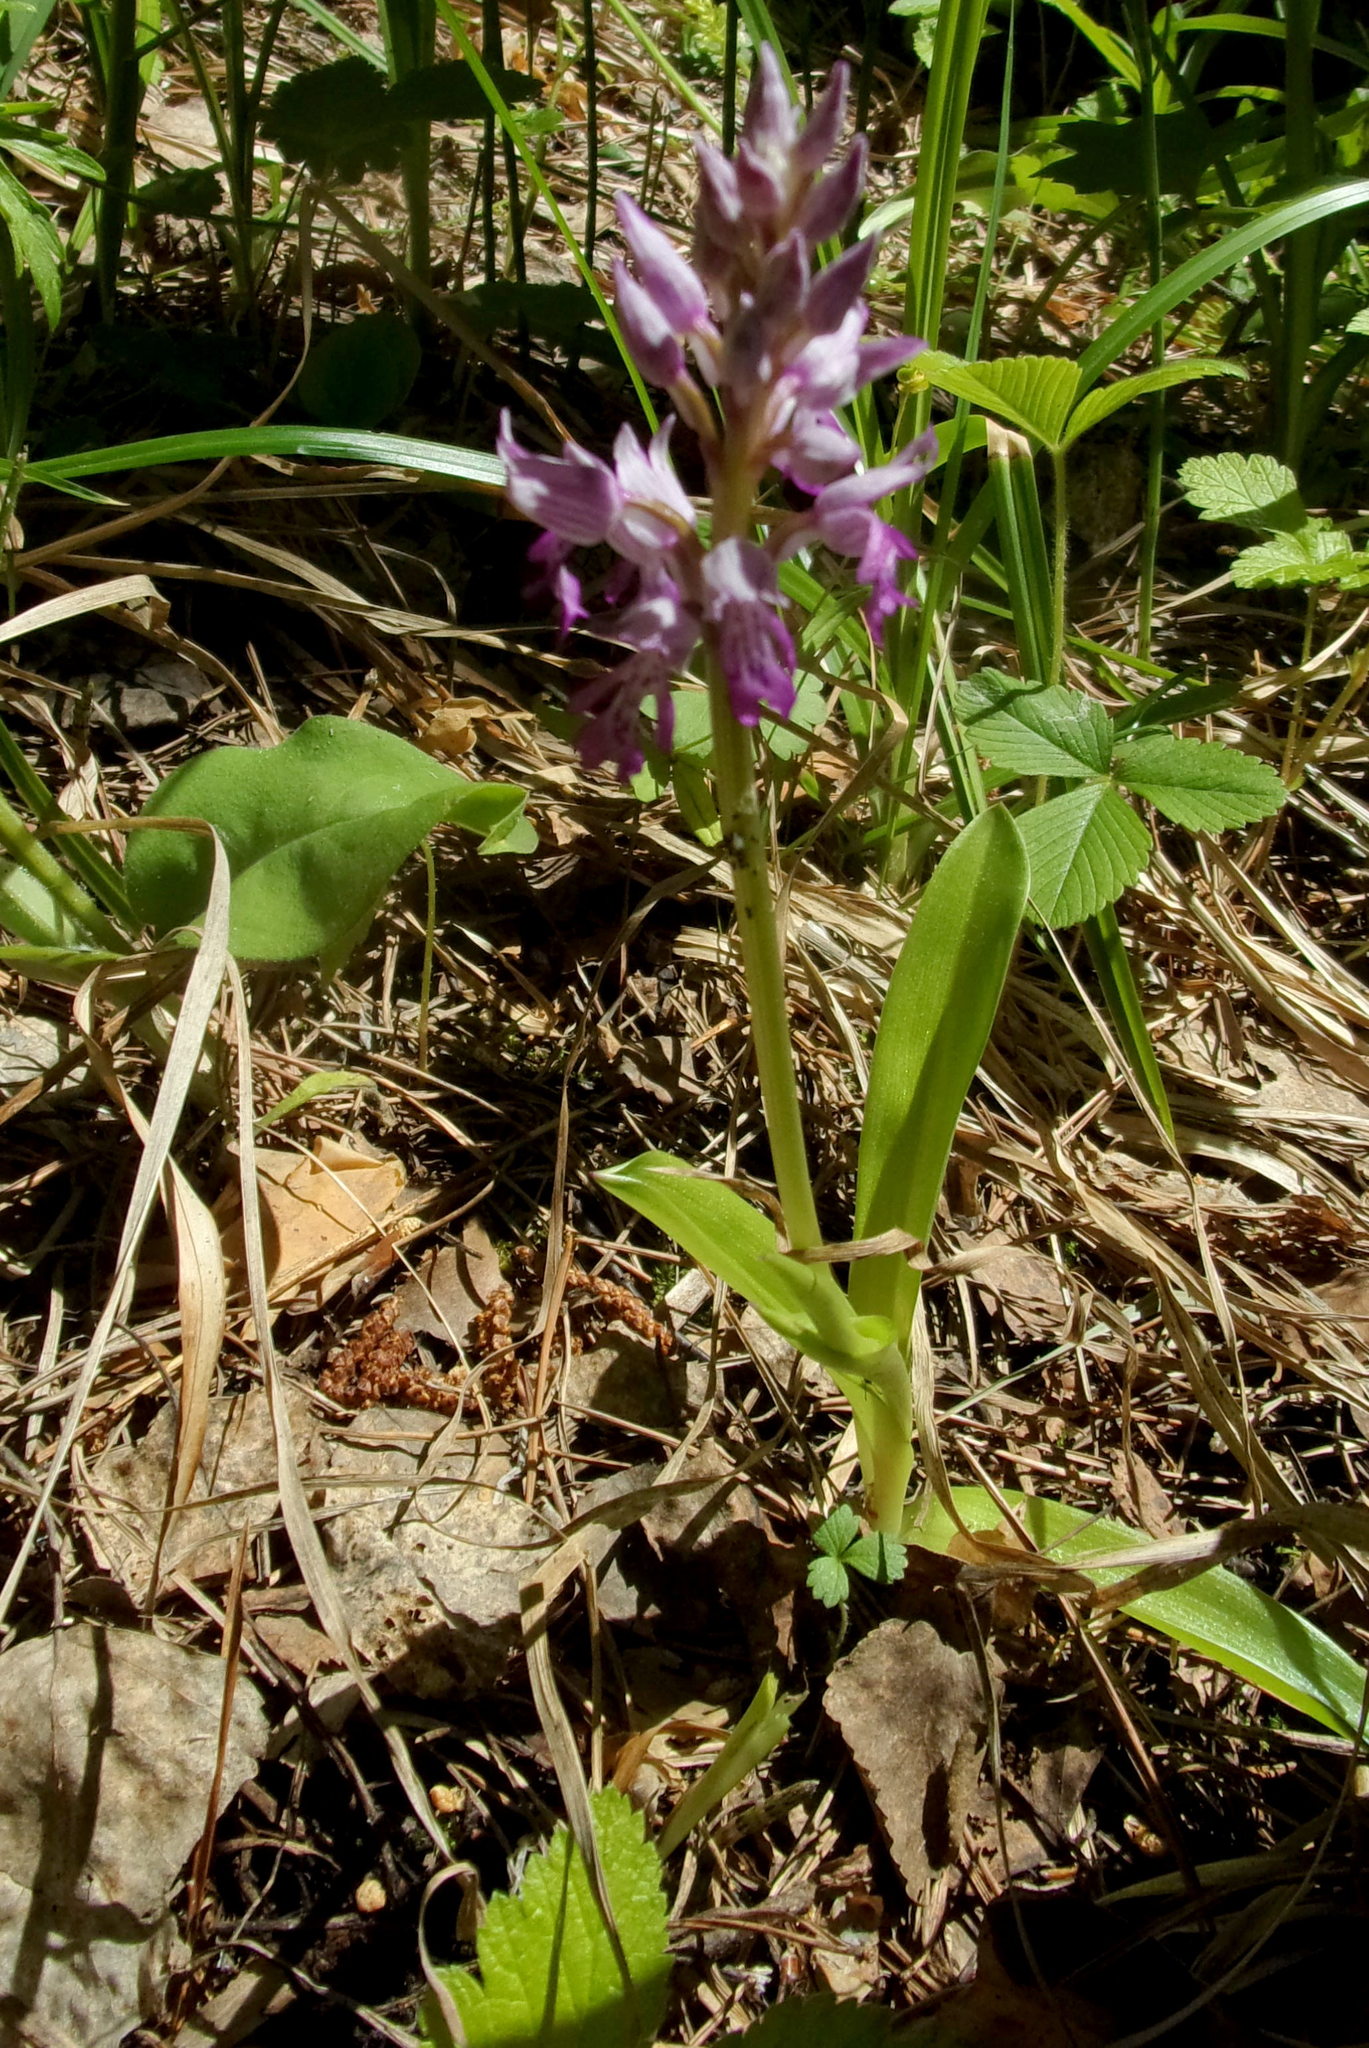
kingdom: Plantae
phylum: Tracheophyta
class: Liliopsida
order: Asparagales
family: Orchidaceae
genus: Orchis
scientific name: Orchis militaris
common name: Military orchid
